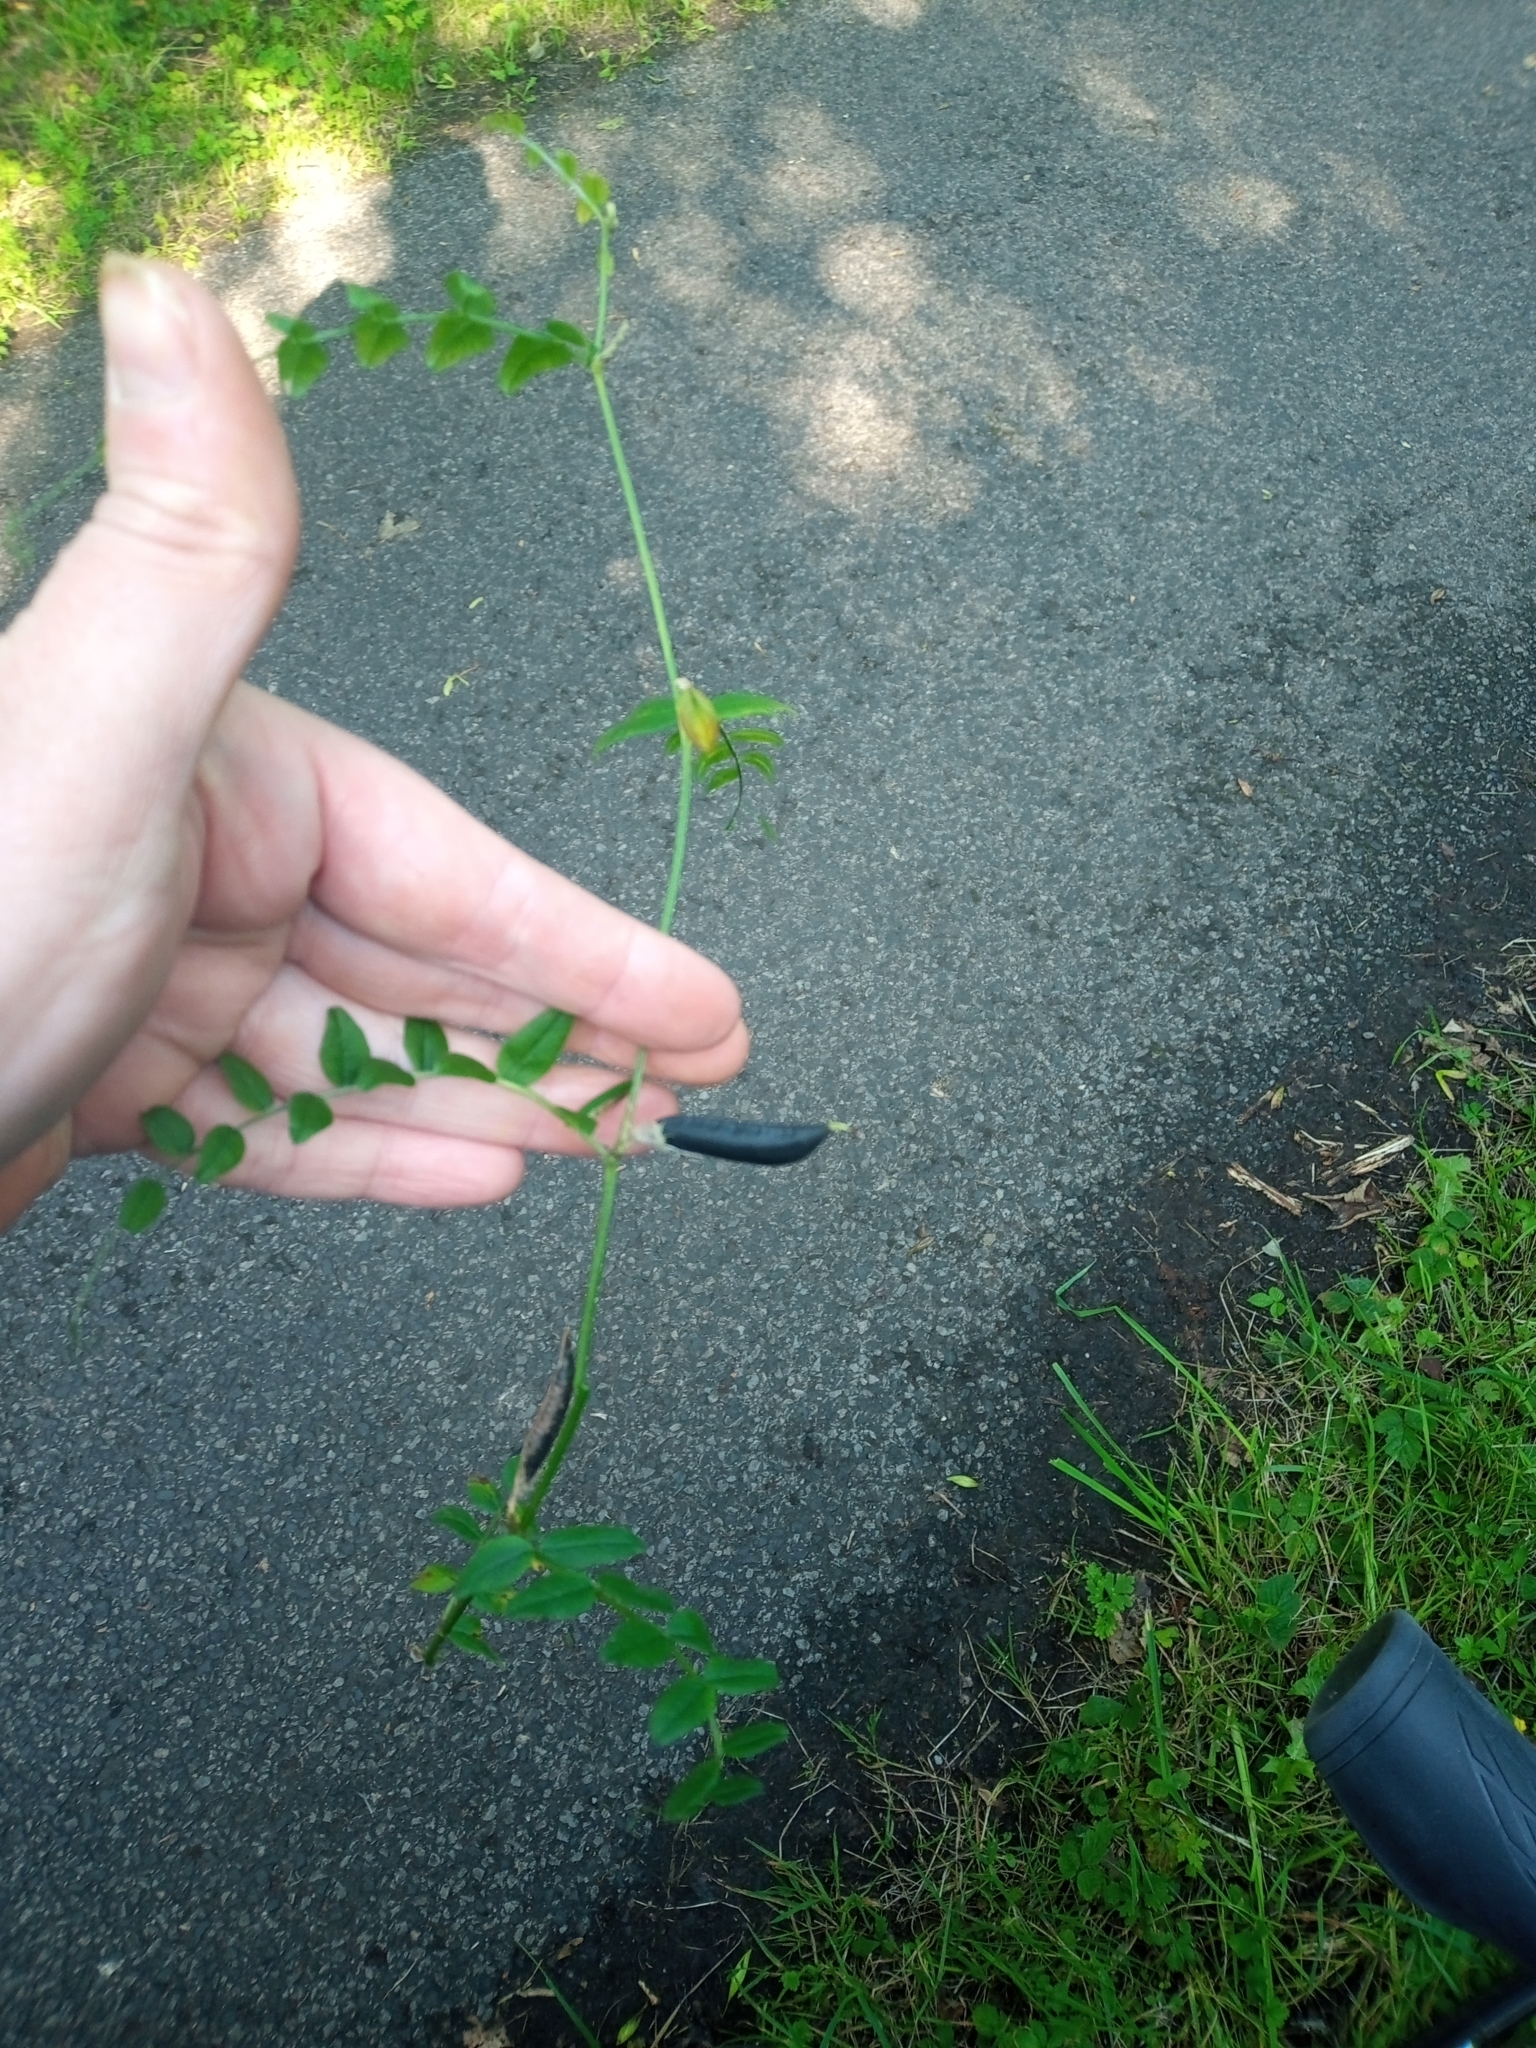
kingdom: Plantae
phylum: Tracheophyta
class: Magnoliopsida
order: Fabales
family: Fabaceae
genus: Vicia
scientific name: Vicia sepium
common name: Bush vetch
